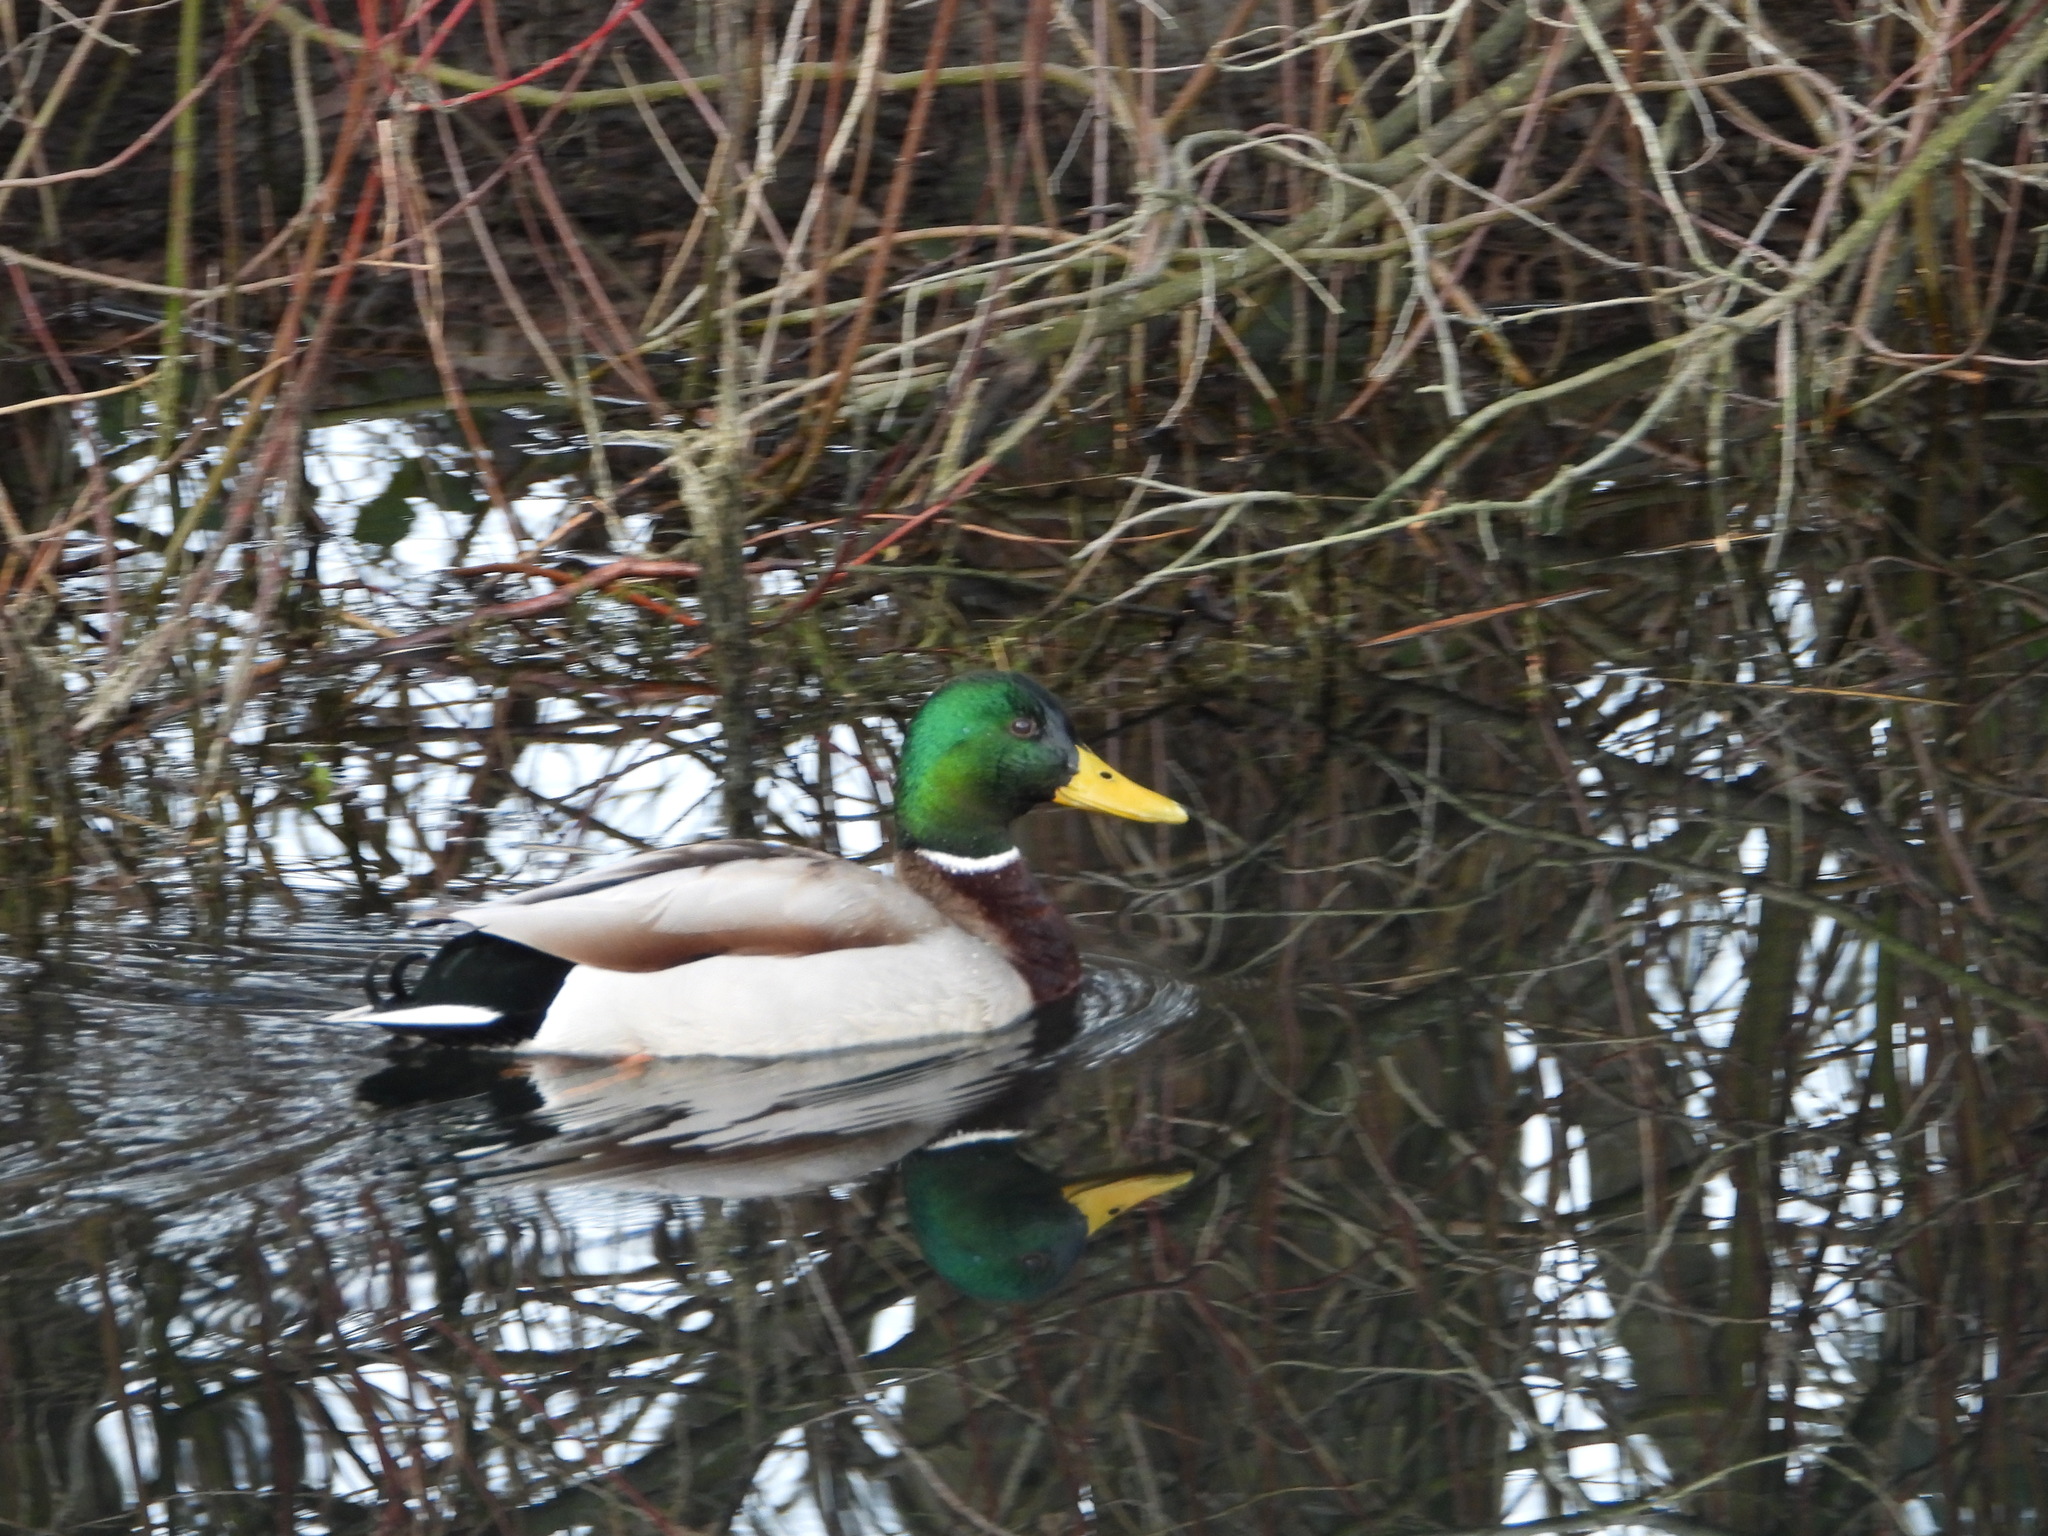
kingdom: Animalia
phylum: Chordata
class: Aves
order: Anseriformes
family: Anatidae
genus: Anas
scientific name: Anas platyrhynchos
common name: Mallard
